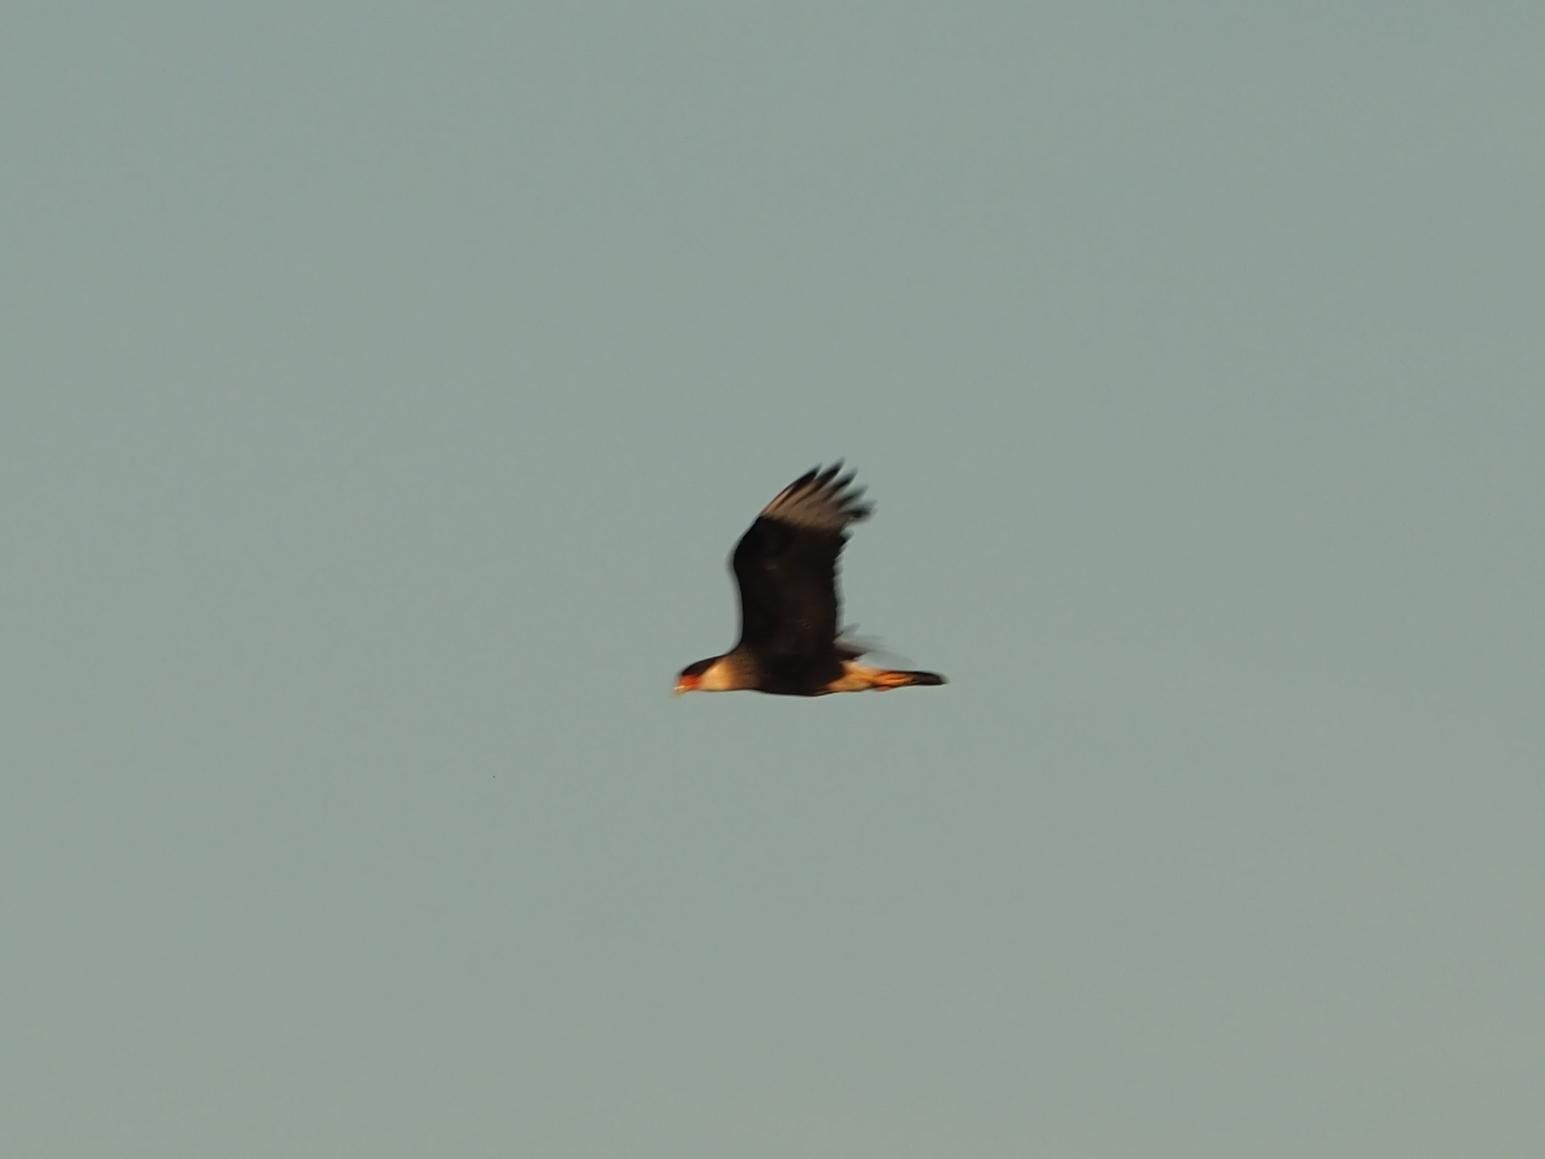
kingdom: Animalia
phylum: Chordata
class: Aves
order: Falconiformes
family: Falconidae
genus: Caracara
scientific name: Caracara plancus
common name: Southern caracara
